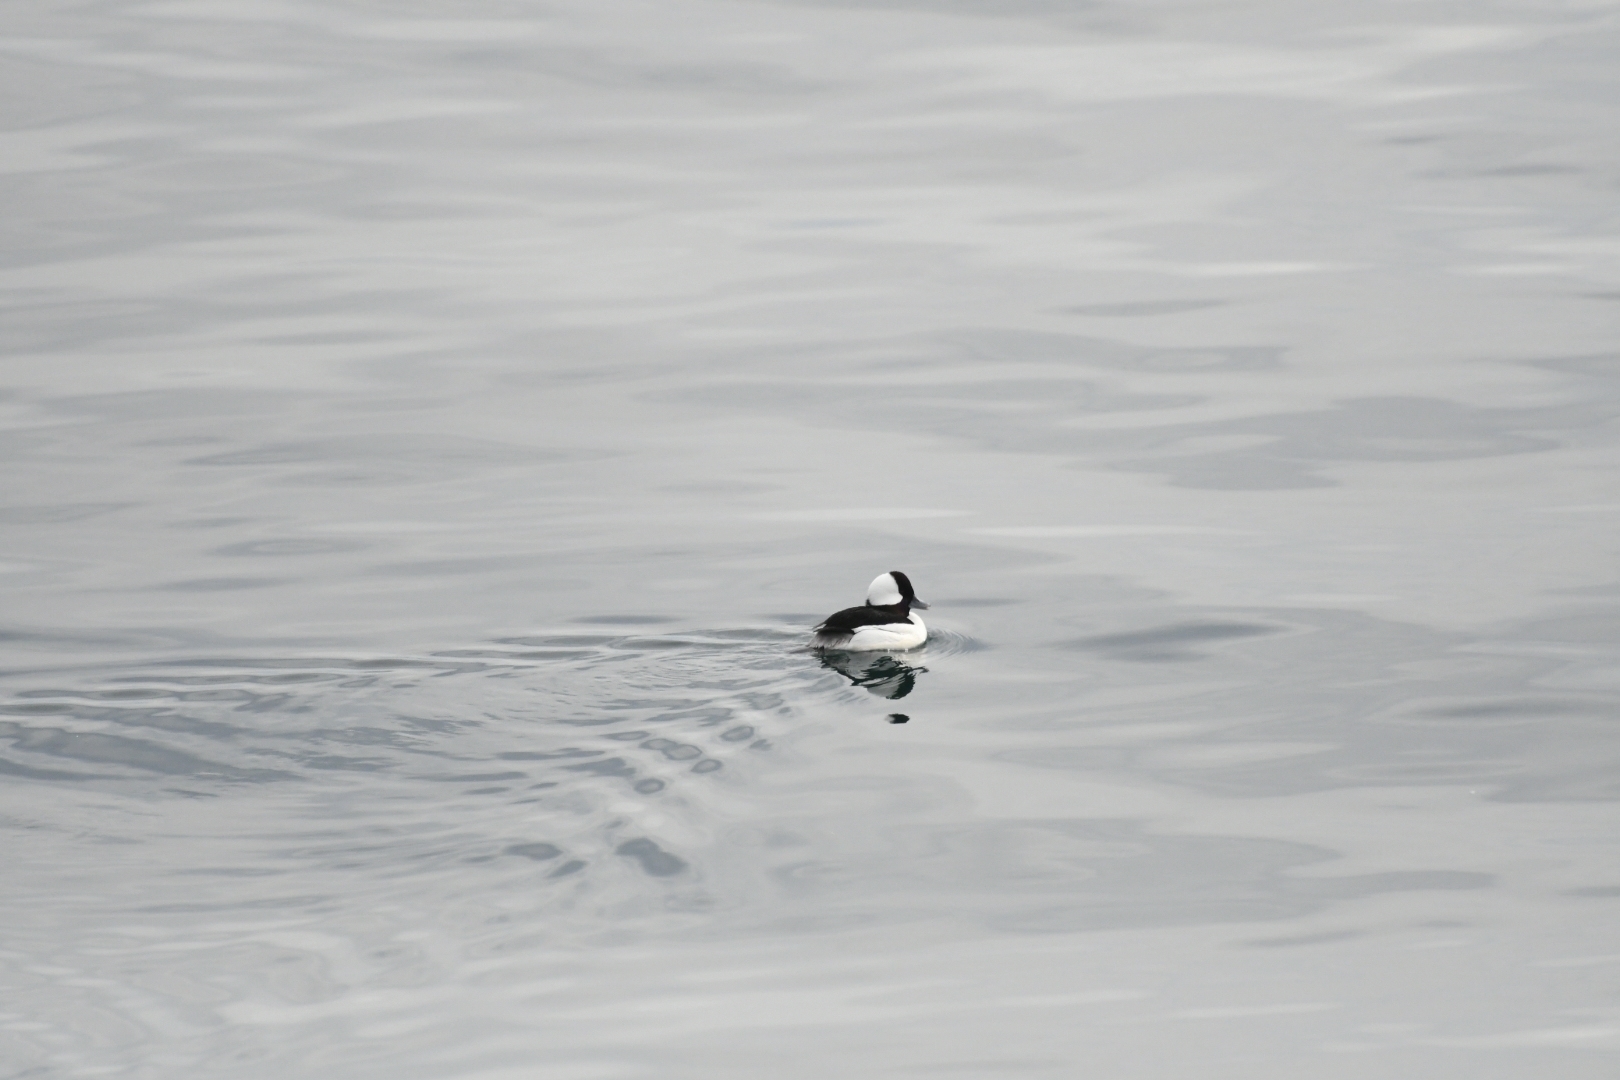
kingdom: Animalia
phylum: Chordata
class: Aves
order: Anseriformes
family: Anatidae
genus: Bucephala
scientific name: Bucephala albeola
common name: Bufflehead
